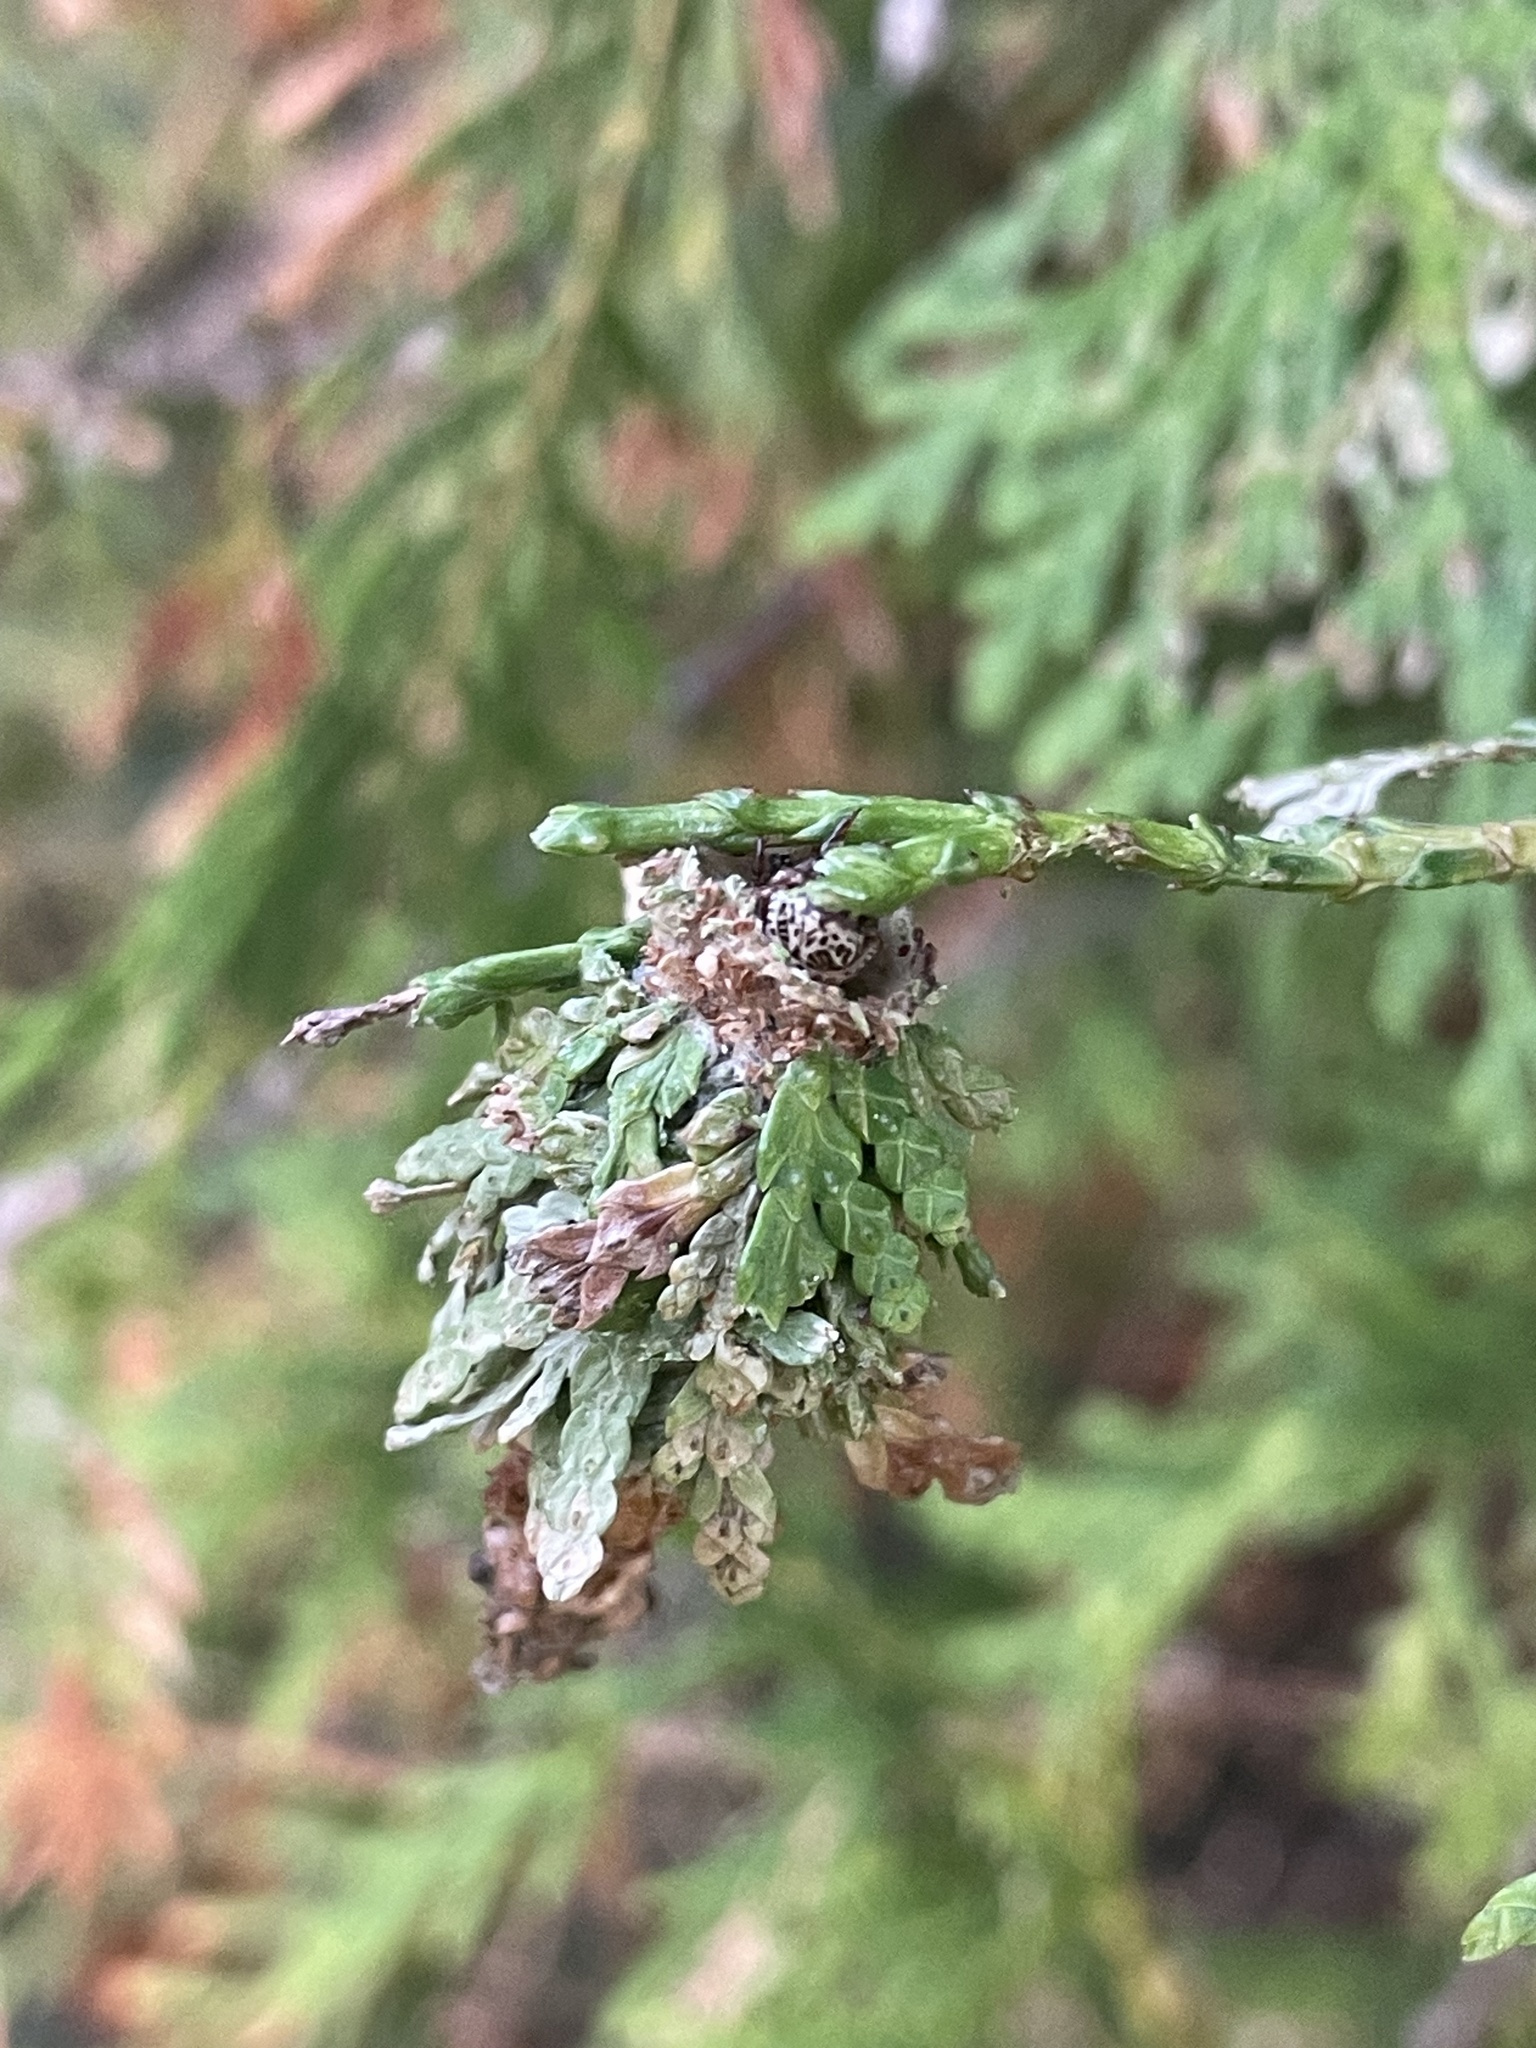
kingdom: Animalia
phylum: Arthropoda
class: Insecta
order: Lepidoptera
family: Psychidae
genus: Thyridopteryx
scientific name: Thyridopteryx ephemeraeformis
